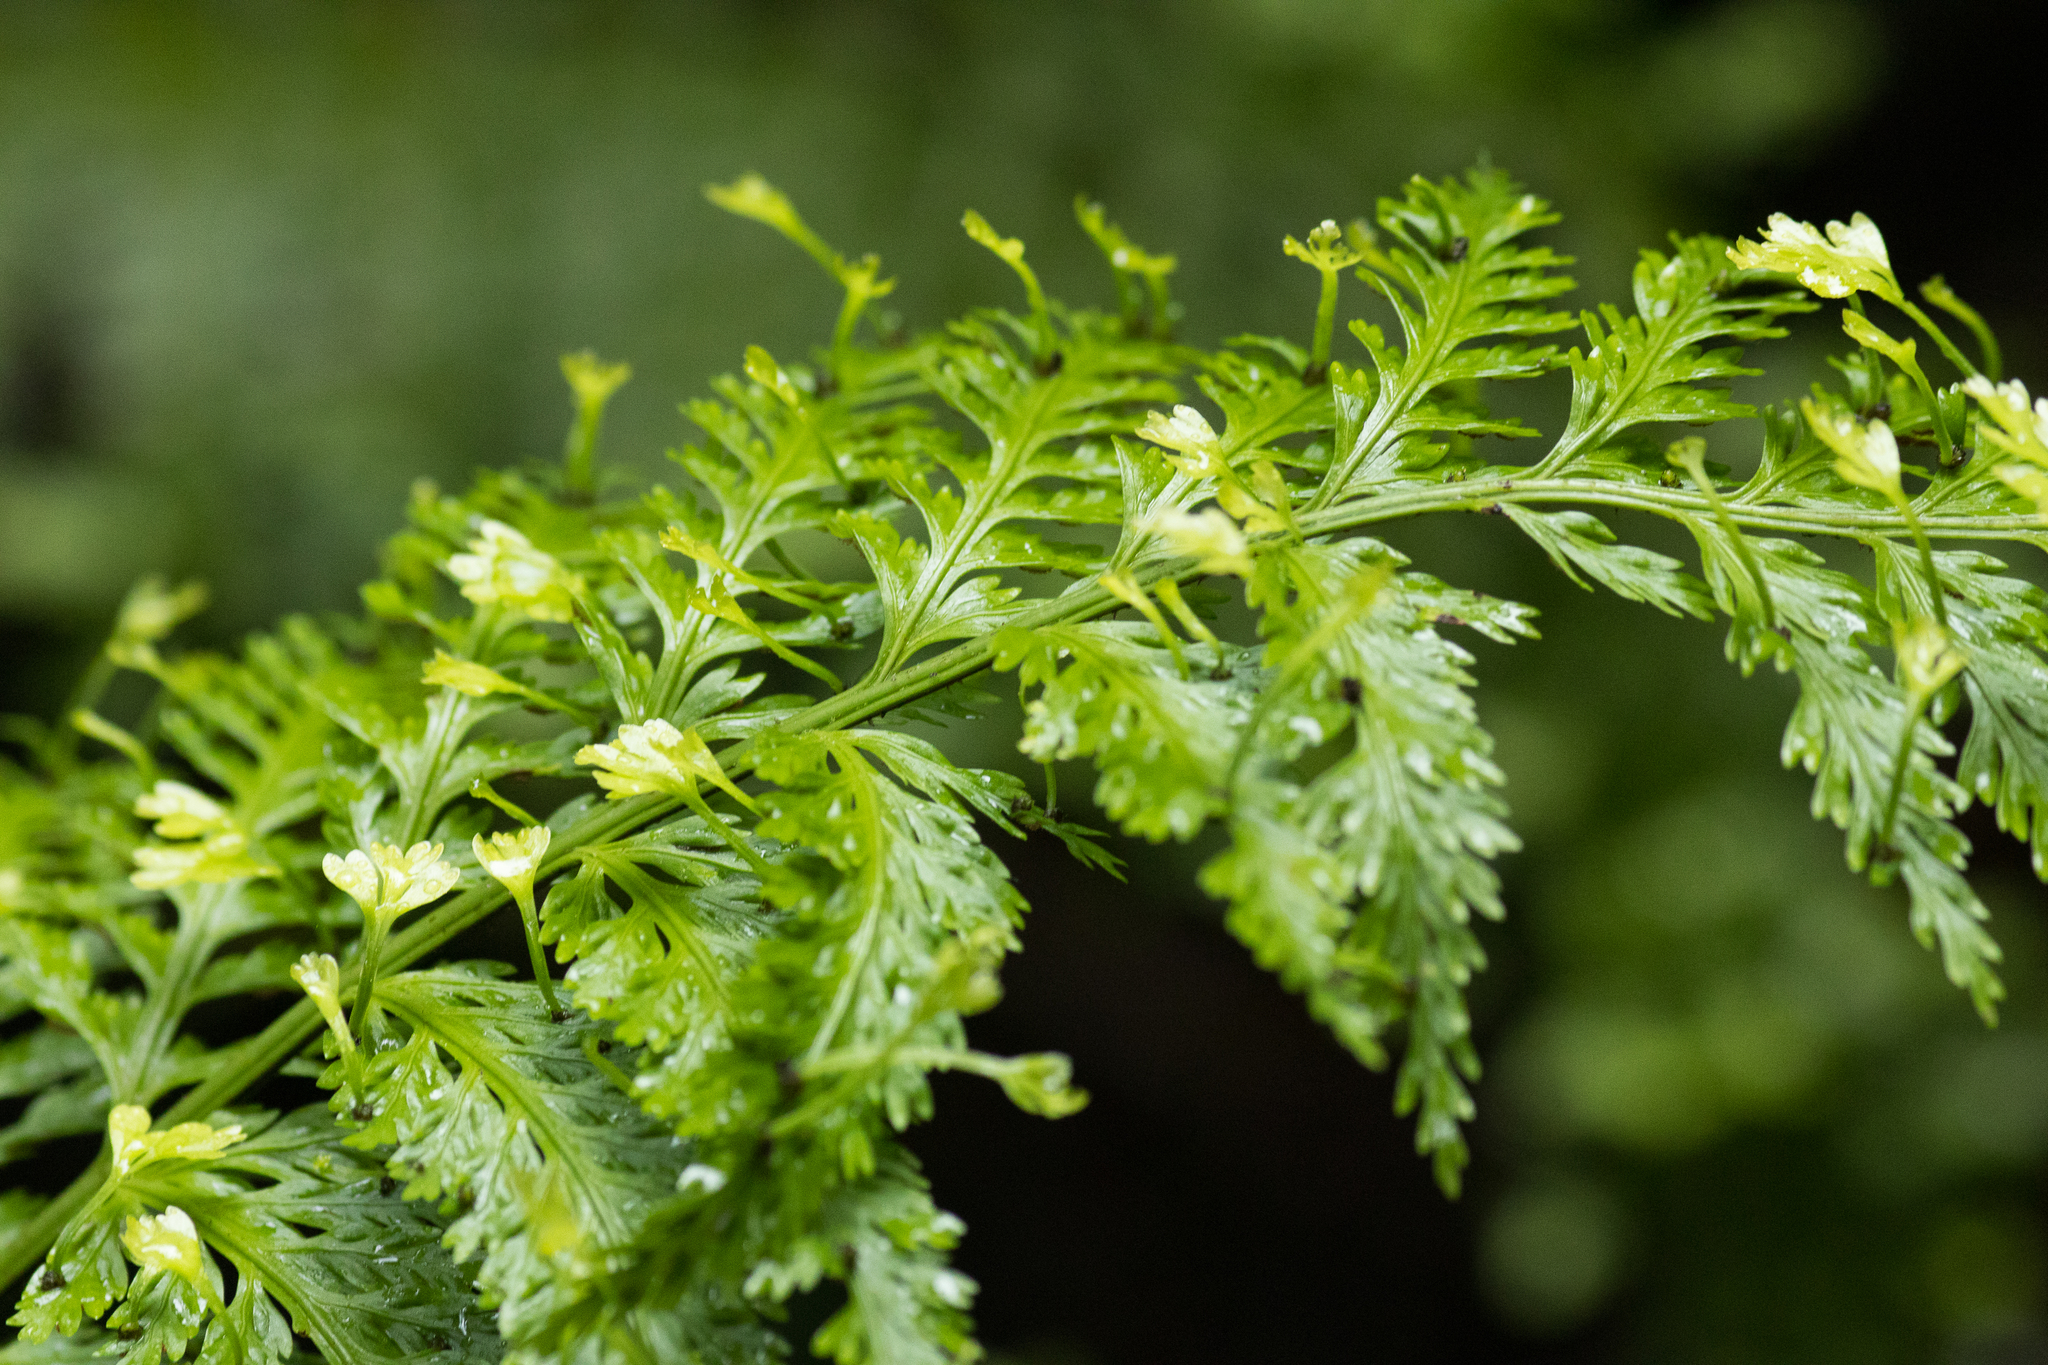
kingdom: Plantae
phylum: Tracheophyta
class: Polypodiopsida
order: Polypodiales
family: Aspleniaceae
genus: Asplenium
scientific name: Asplenium bulbiferum
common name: Mother fern
